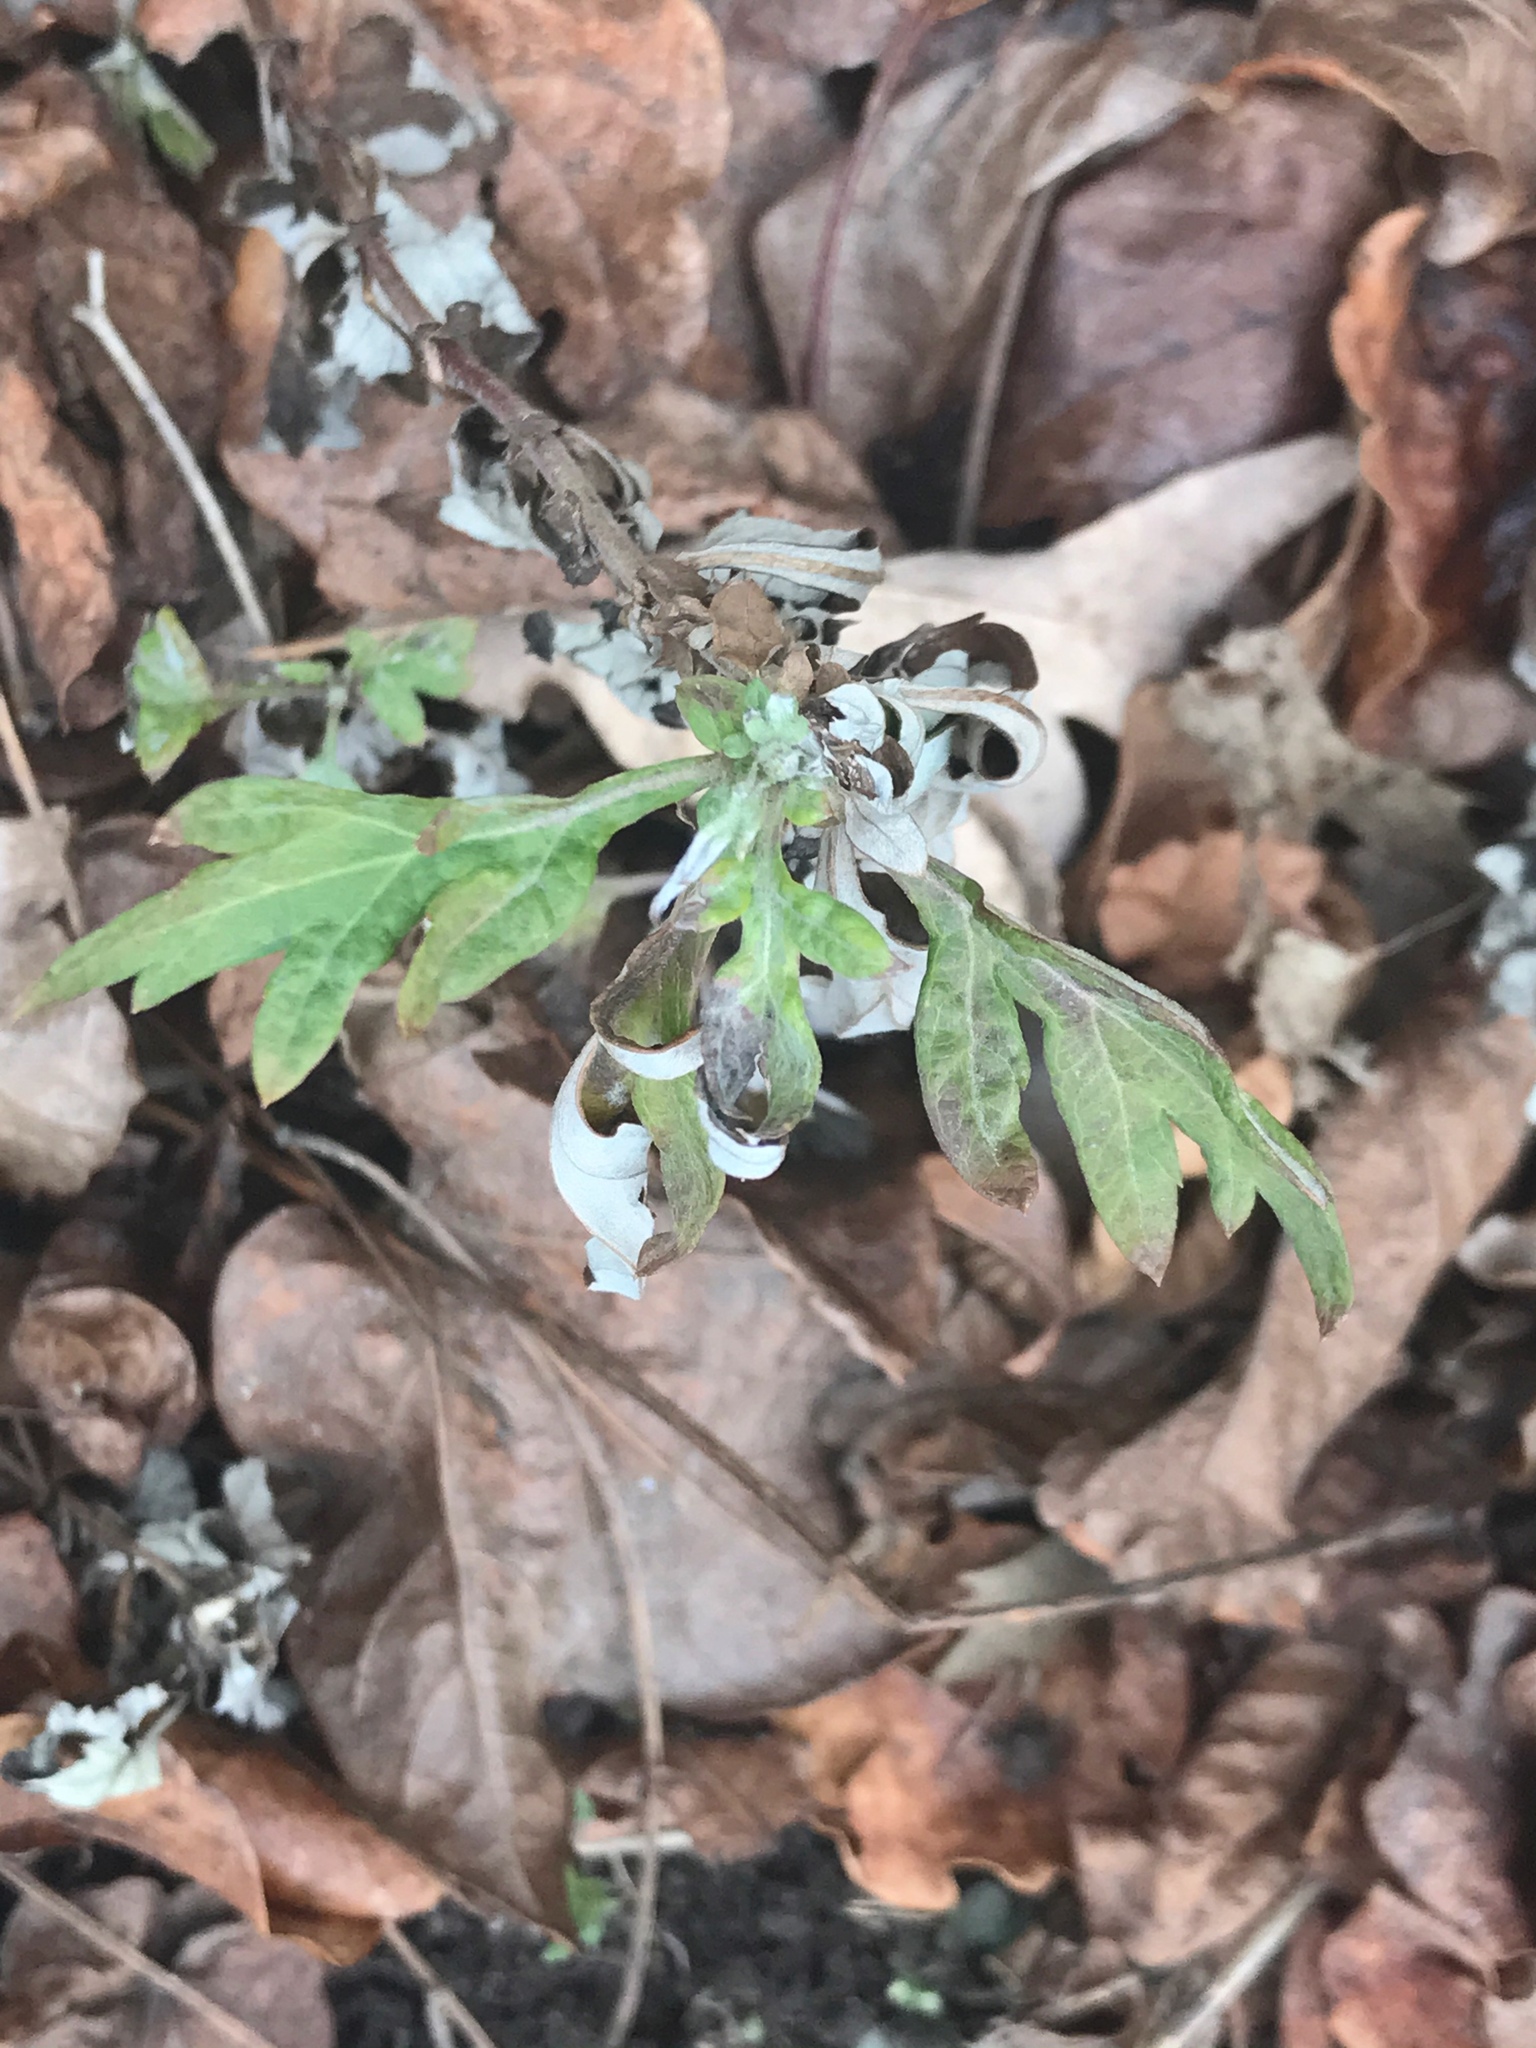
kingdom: Plantae
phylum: Tracheophyta
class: Magnoliopsida
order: Asterales
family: Asteraceae
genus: Artemisia
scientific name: Artemisia vulgaris
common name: Mugwort
